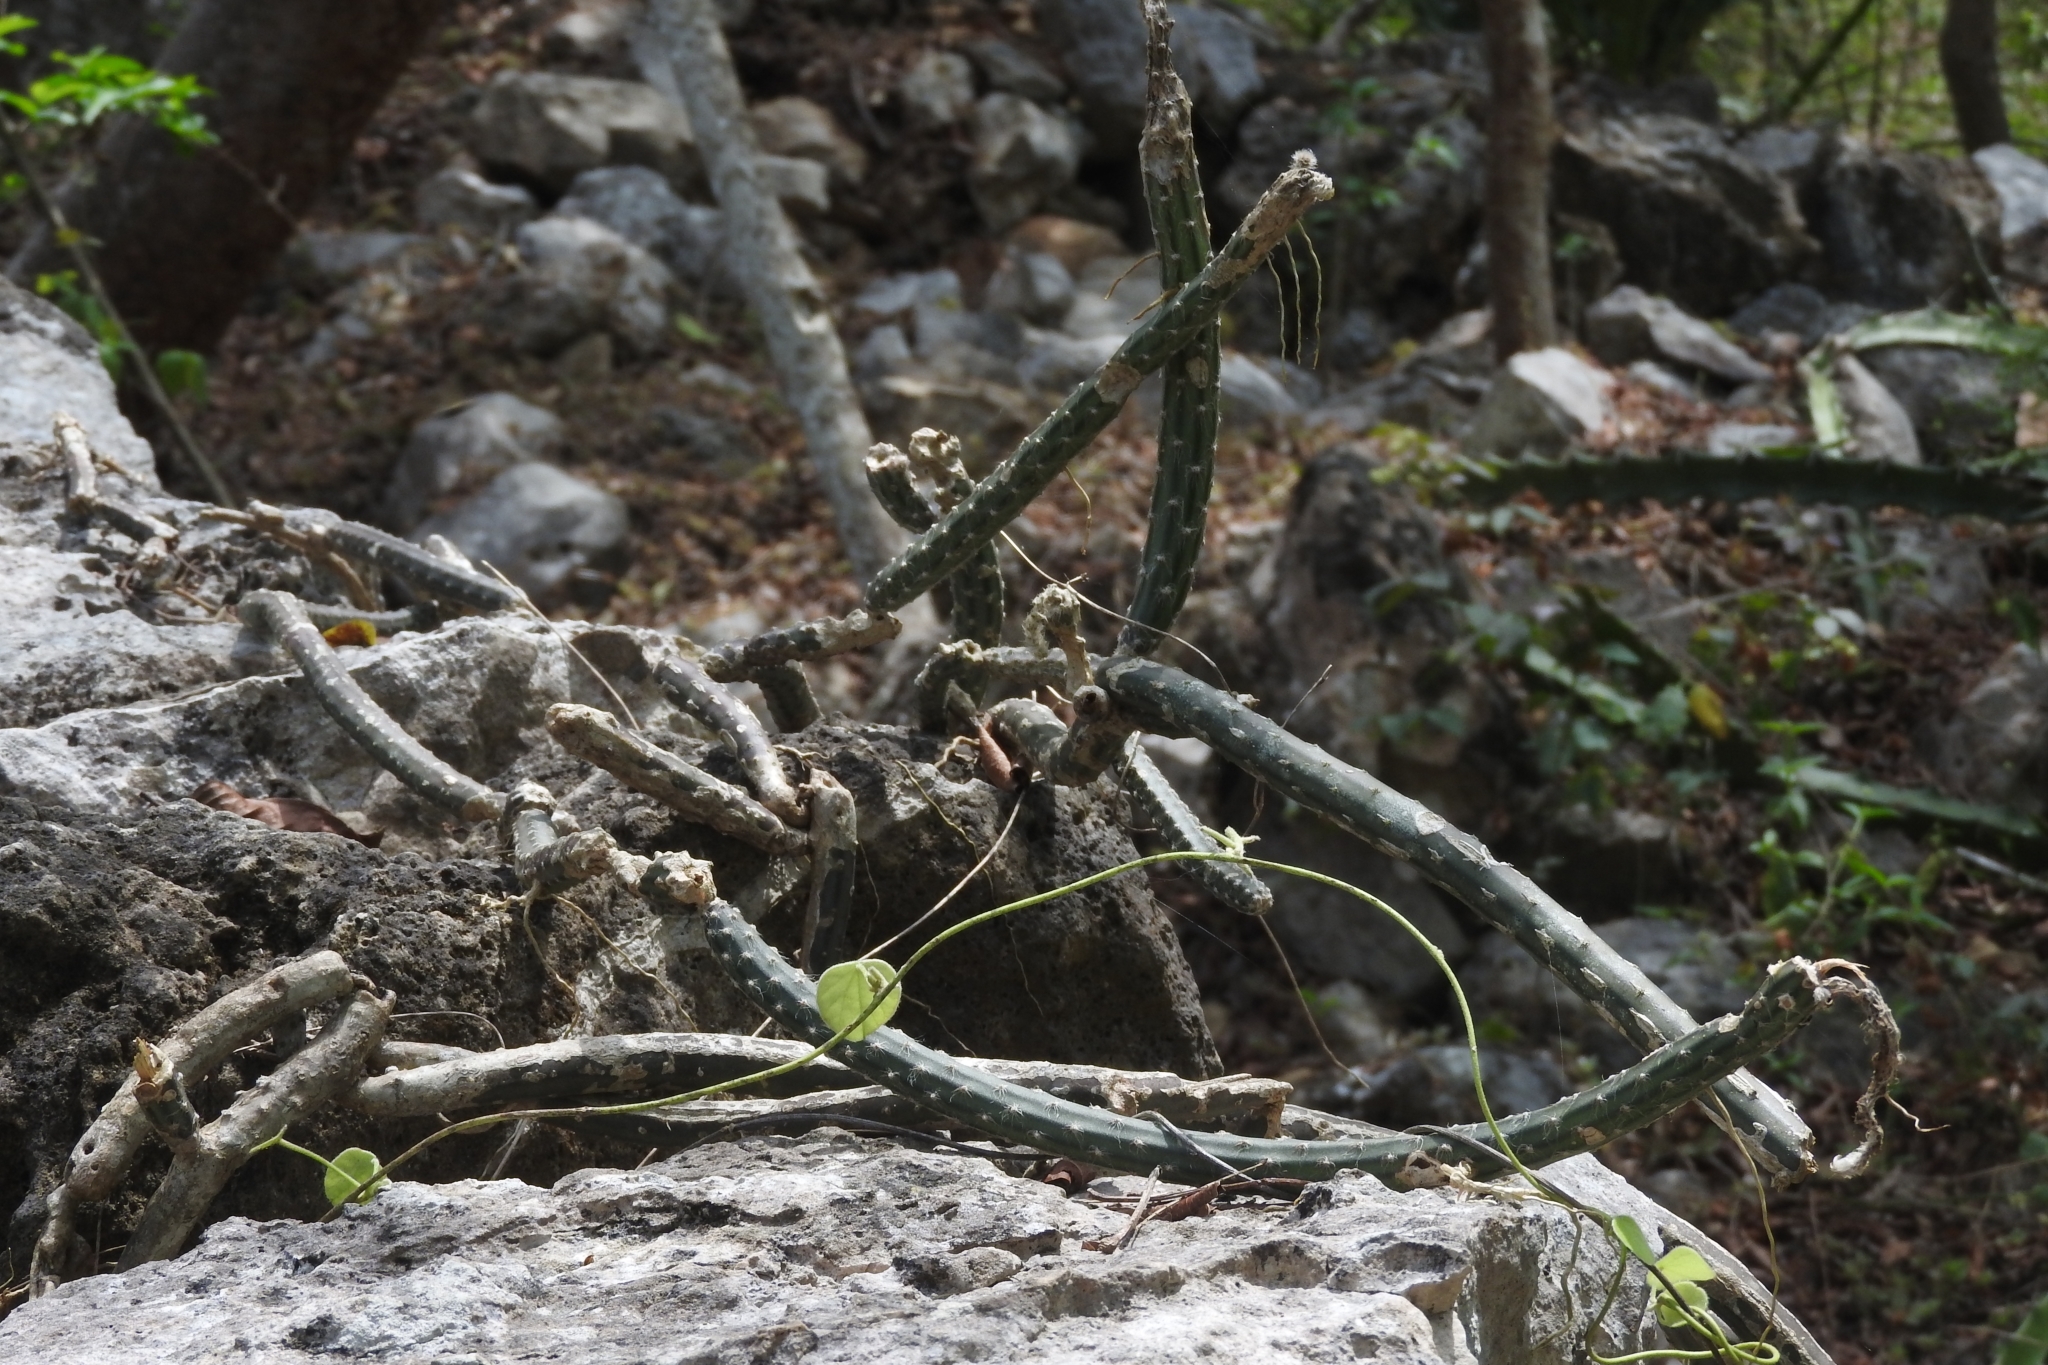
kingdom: Plantae
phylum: Tracheophyta
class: Magnoliopsida
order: Caryophyllales
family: Cactaceae
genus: Selenicereus
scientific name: Selenicereus grandiflorus
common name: Queen of the night
